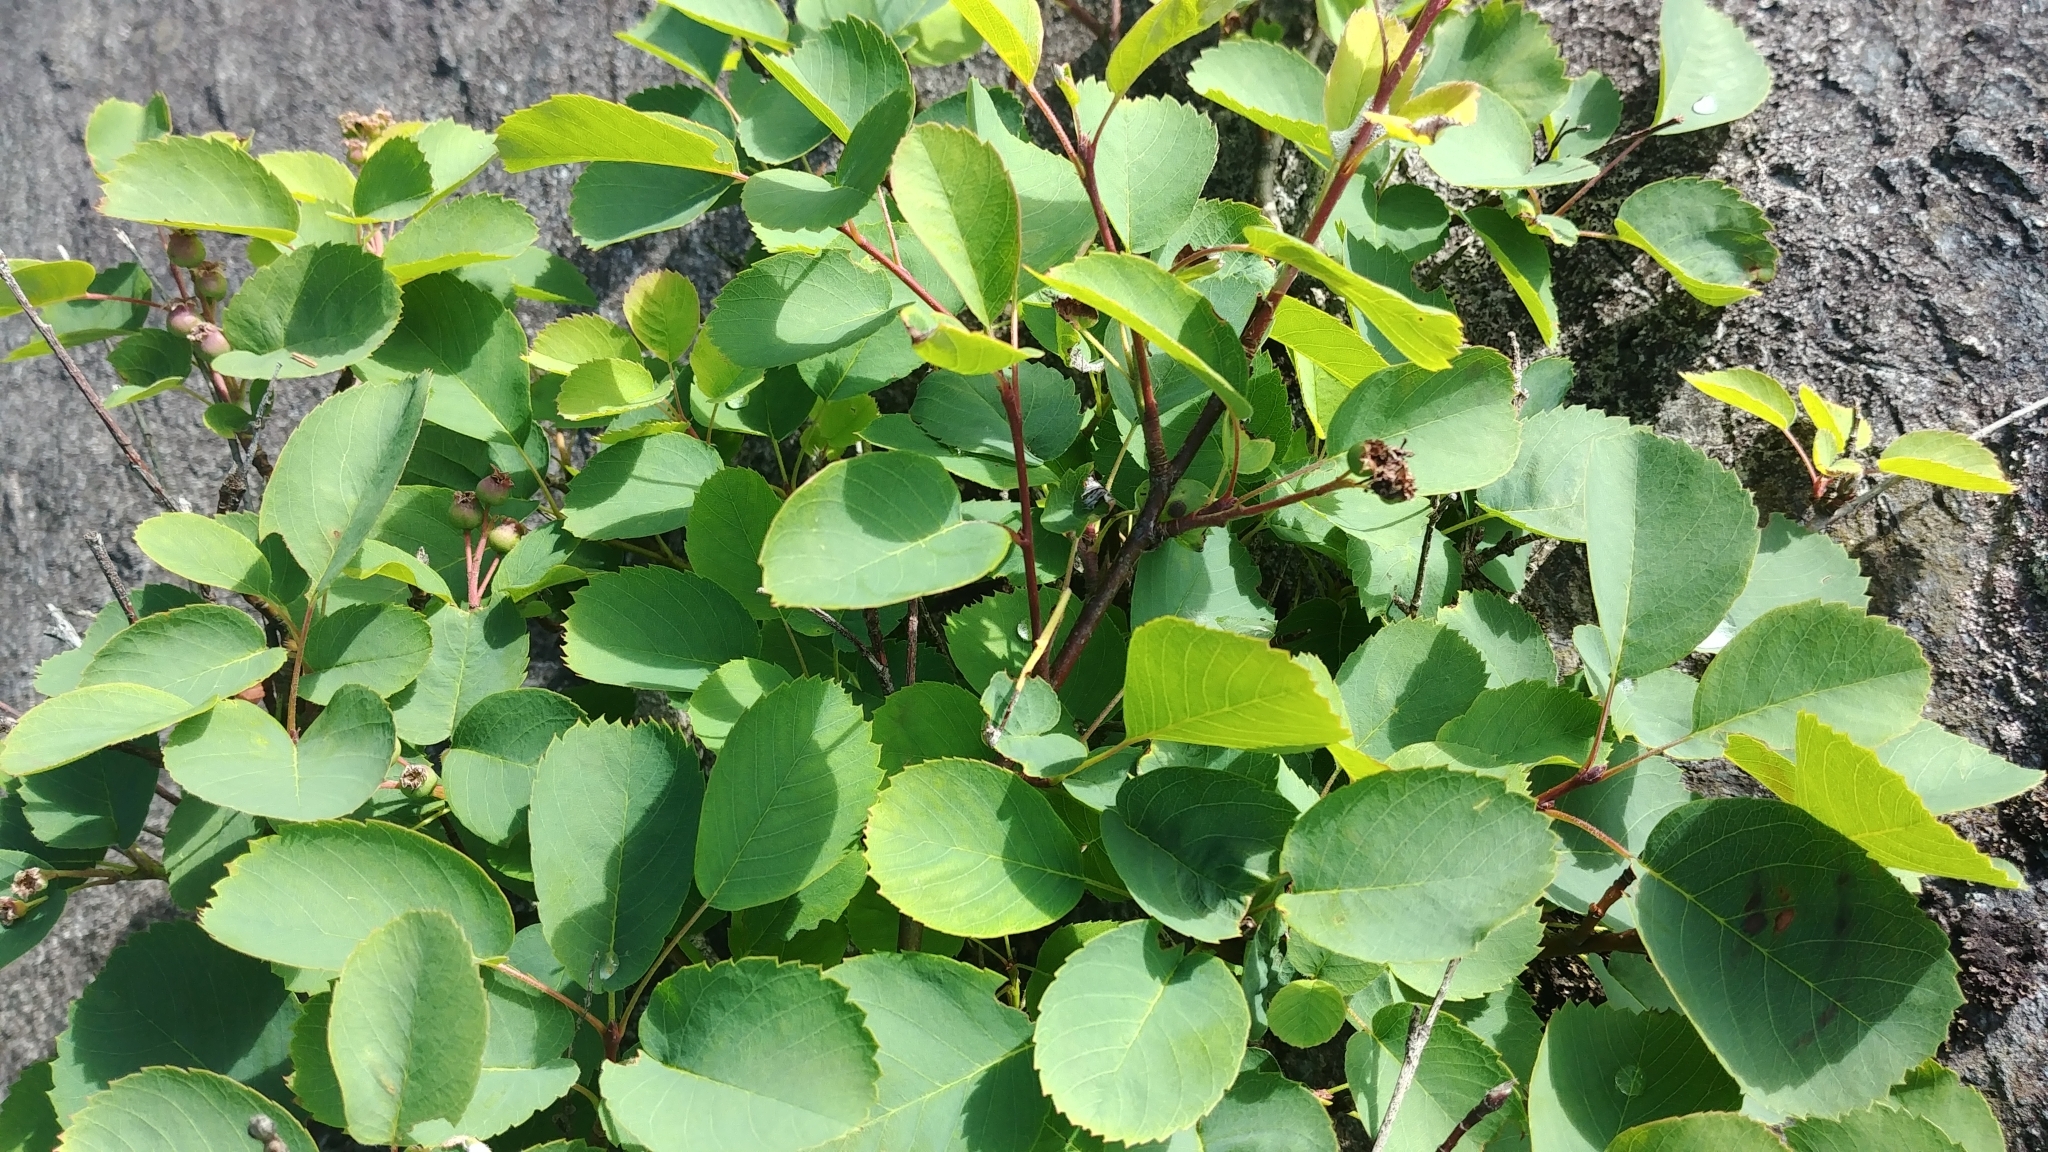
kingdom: Plantae
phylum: Tracheophyta
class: Magnoliopsida
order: Rosales
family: Rosaceae
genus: Amelanchier
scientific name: Amelanchier alnifolia
